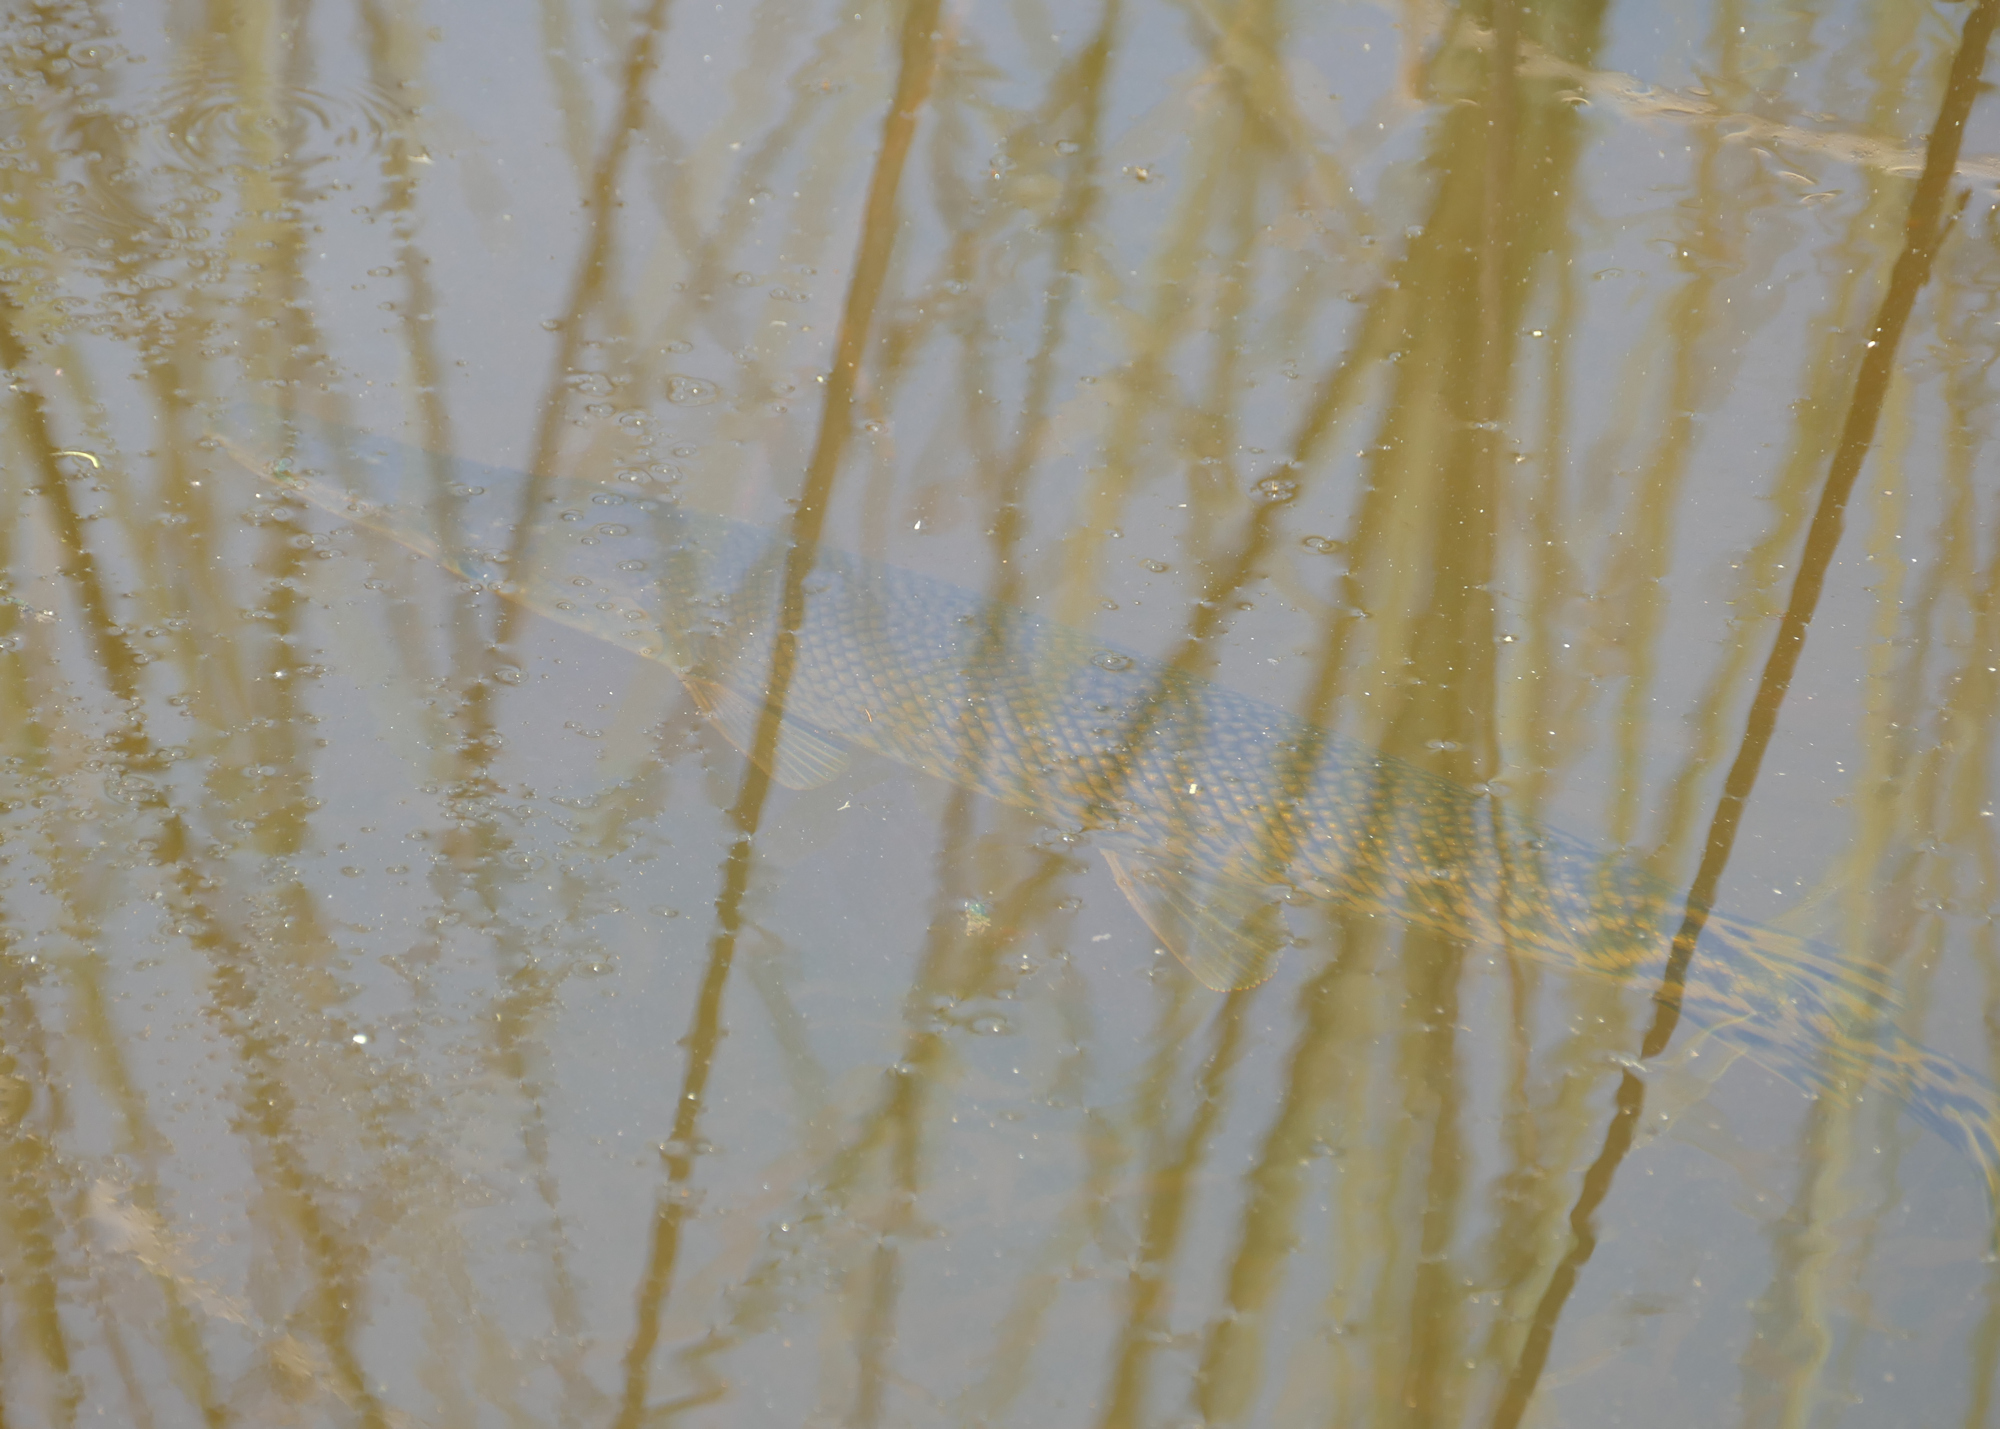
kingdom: Animalia
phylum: Chordata
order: Lepisosteiformes
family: Lepisosteidae
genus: Atractosteus
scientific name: Atractosteus spatula
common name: Alligator gar
